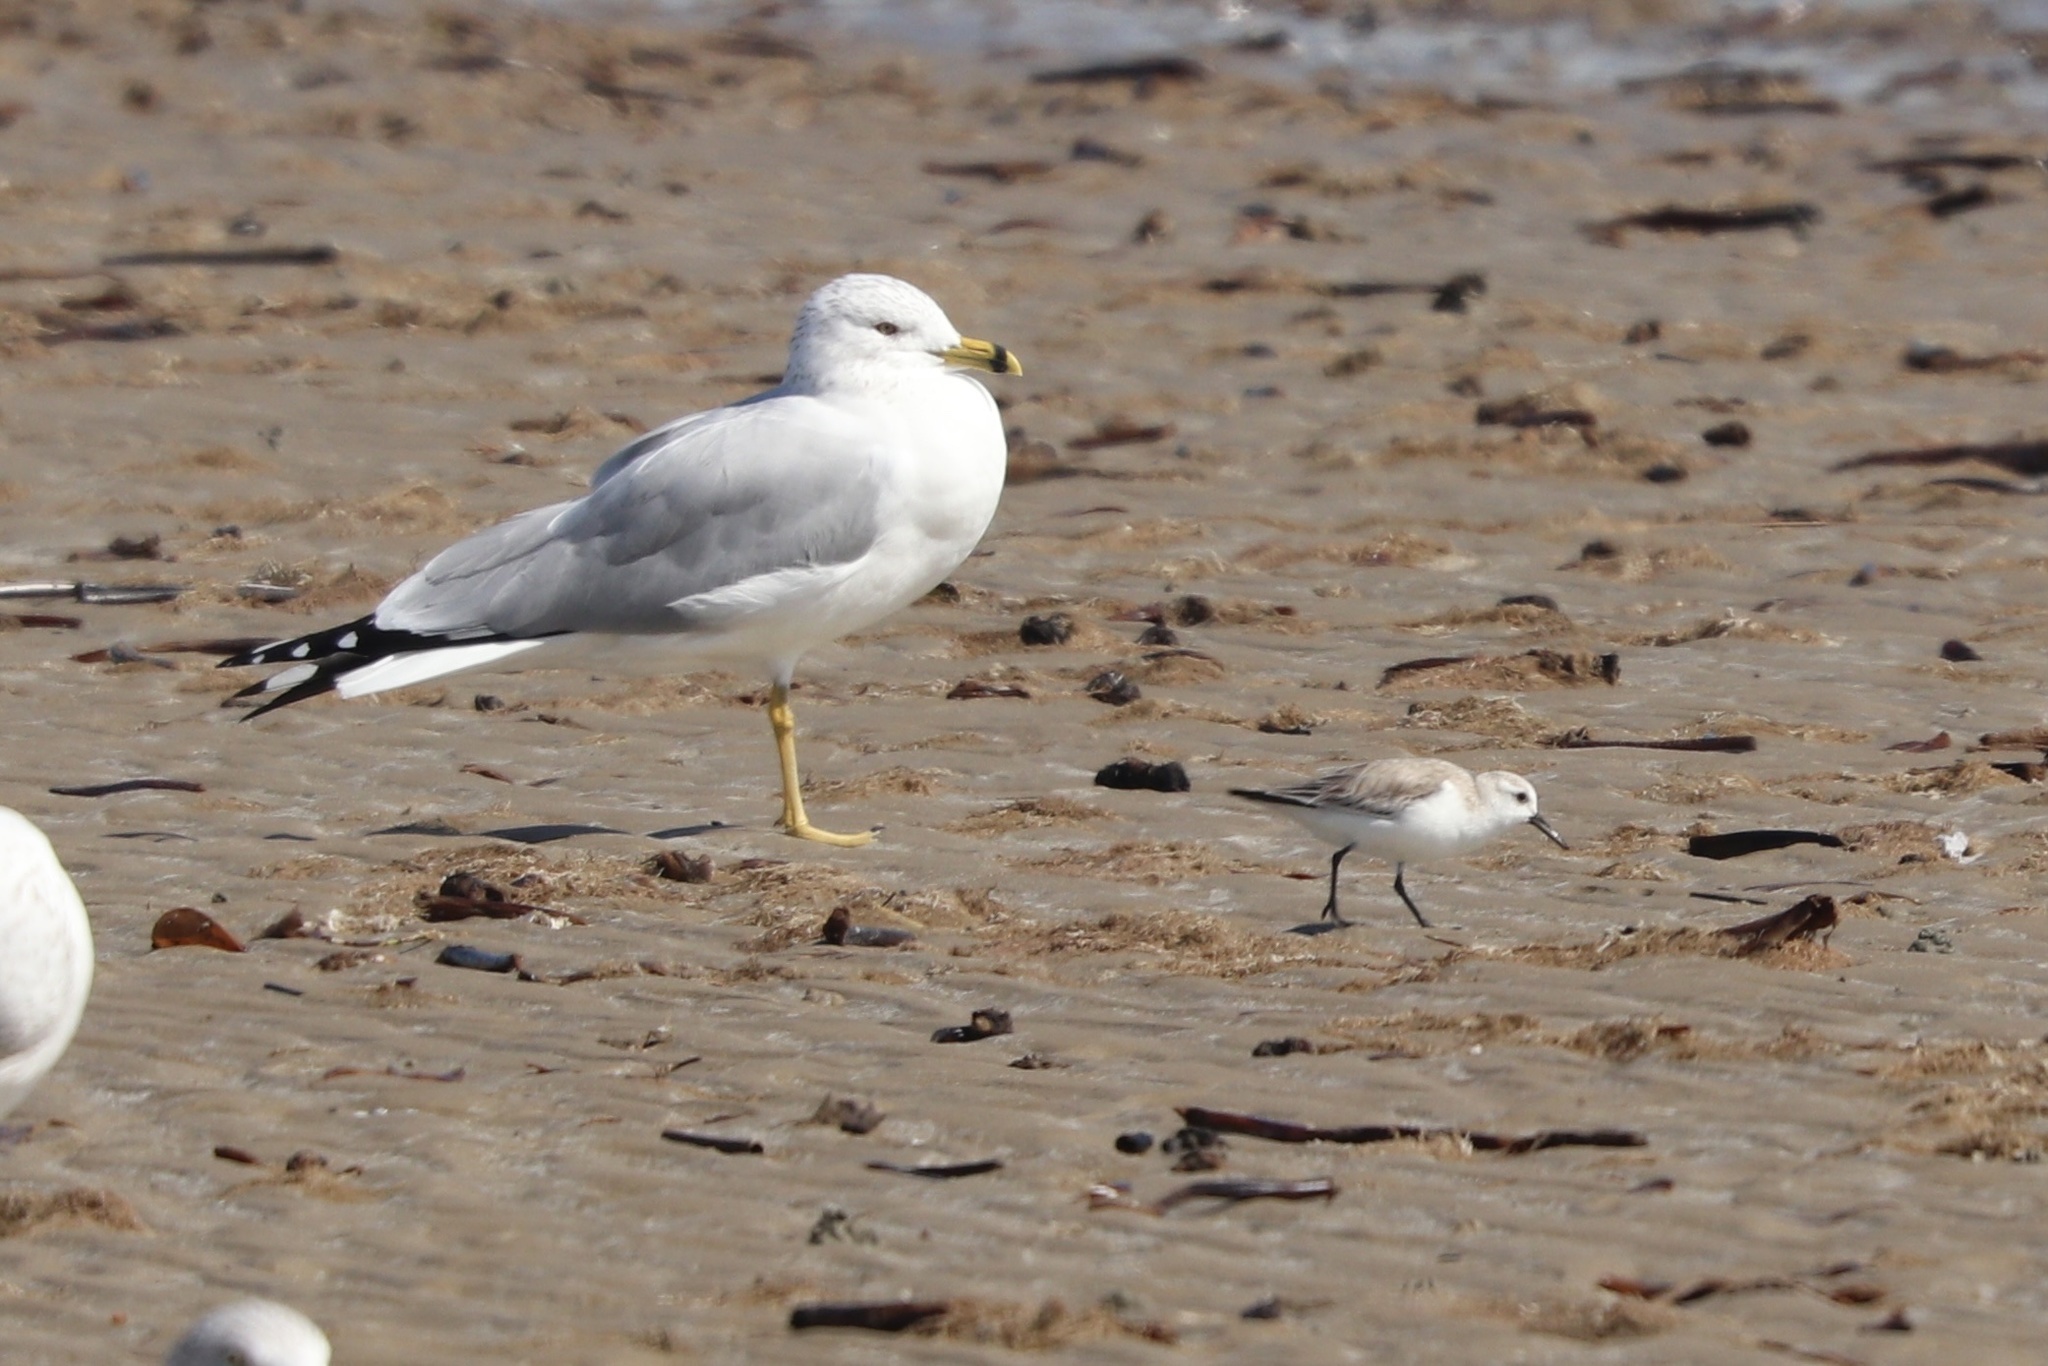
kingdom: Animalia
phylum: Chordata
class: Aves
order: Charadriiformes
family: Laridae
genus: Larus
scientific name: Larus delawarensis
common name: Ring-billed gull
